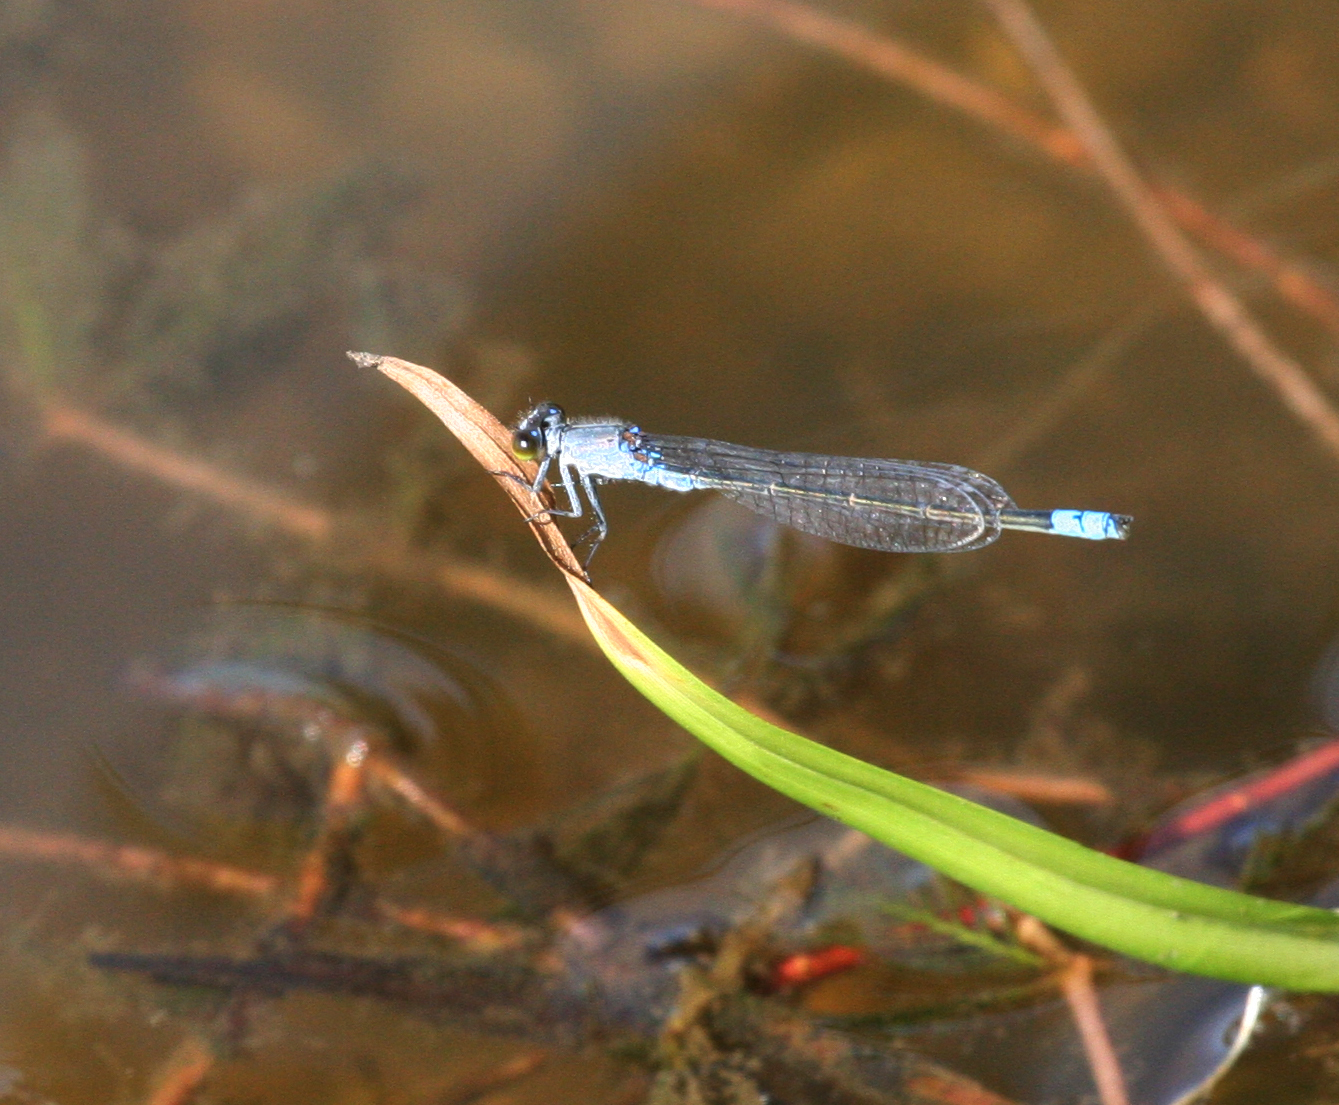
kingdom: Animalia
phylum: Arthropoda
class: Insecta
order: Odonata
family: Coenagrionidae
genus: Paracercion
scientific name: Paracercion calamorum
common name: Dusky lilysquatter
